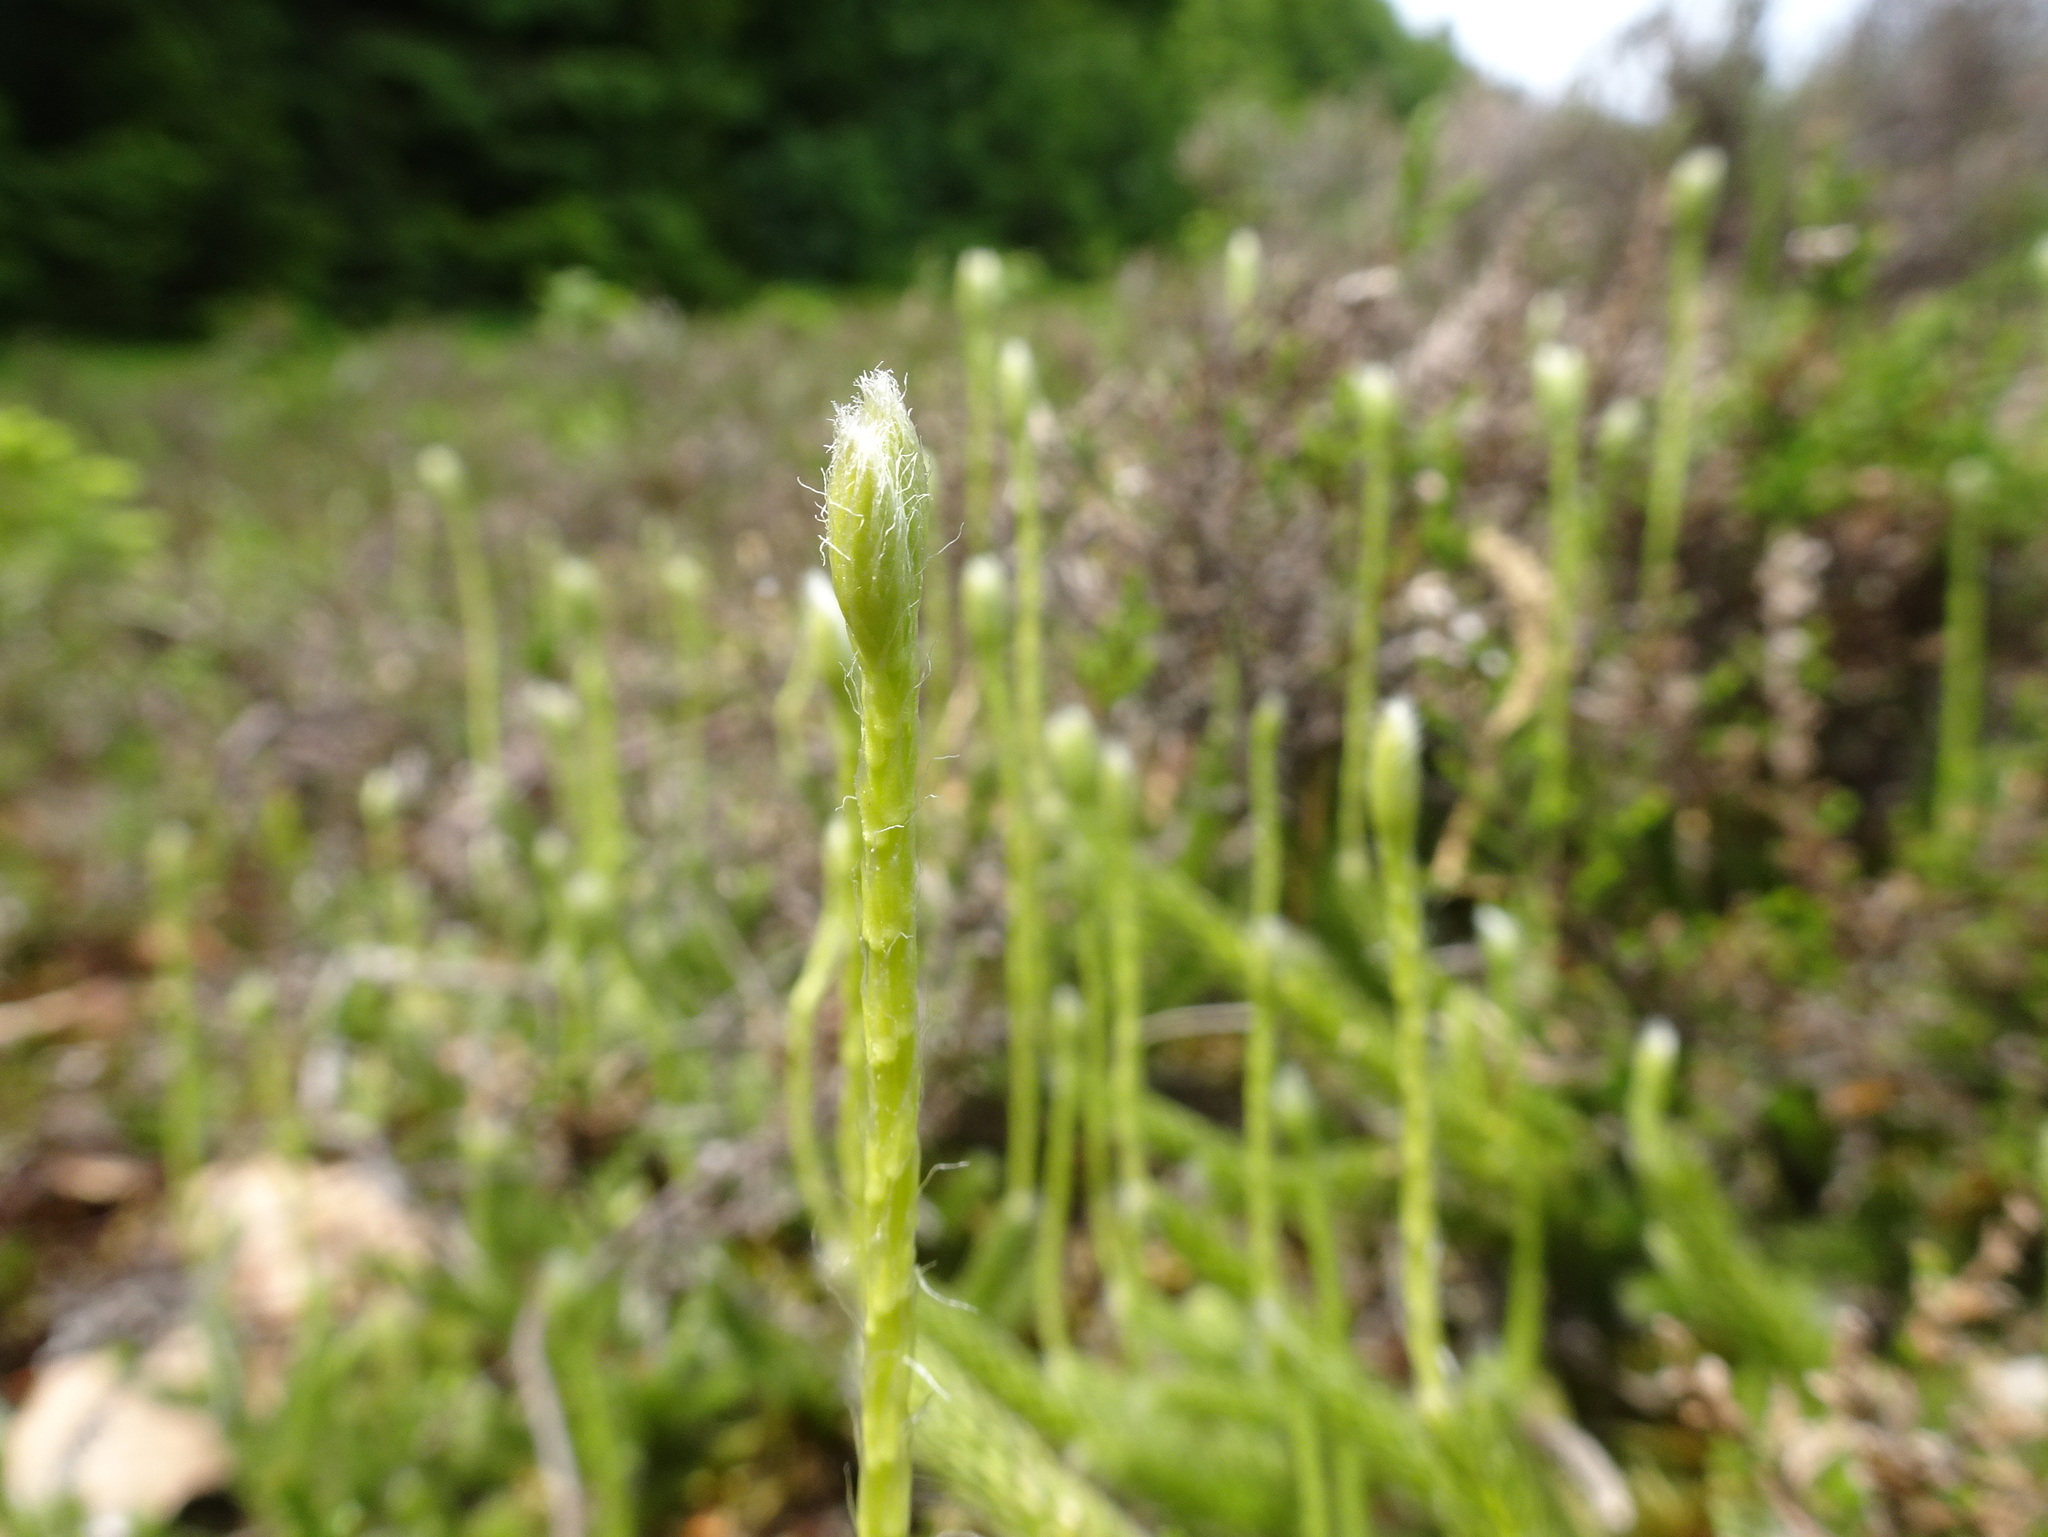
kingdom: Plantae
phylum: Tracheophyta
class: Lycopodiopsida
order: Lycopodiales
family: Lycopodiaceae
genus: Lycopodium
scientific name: Lycopodium clavatum
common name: Stag's-horn clubmoss
